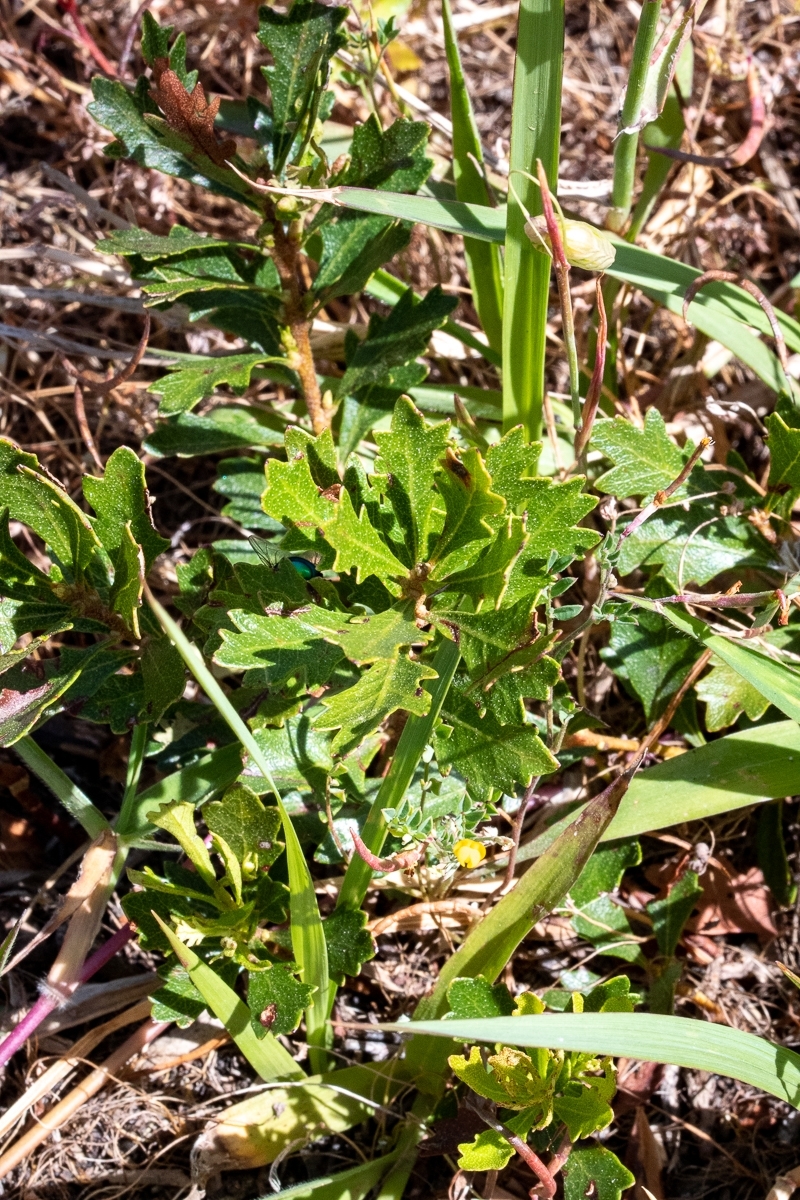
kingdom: Plantae
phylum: Tracheophyta
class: Magnoliopsida
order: Fagales
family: Myricaceae
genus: Morella
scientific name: Morella quercifolia
